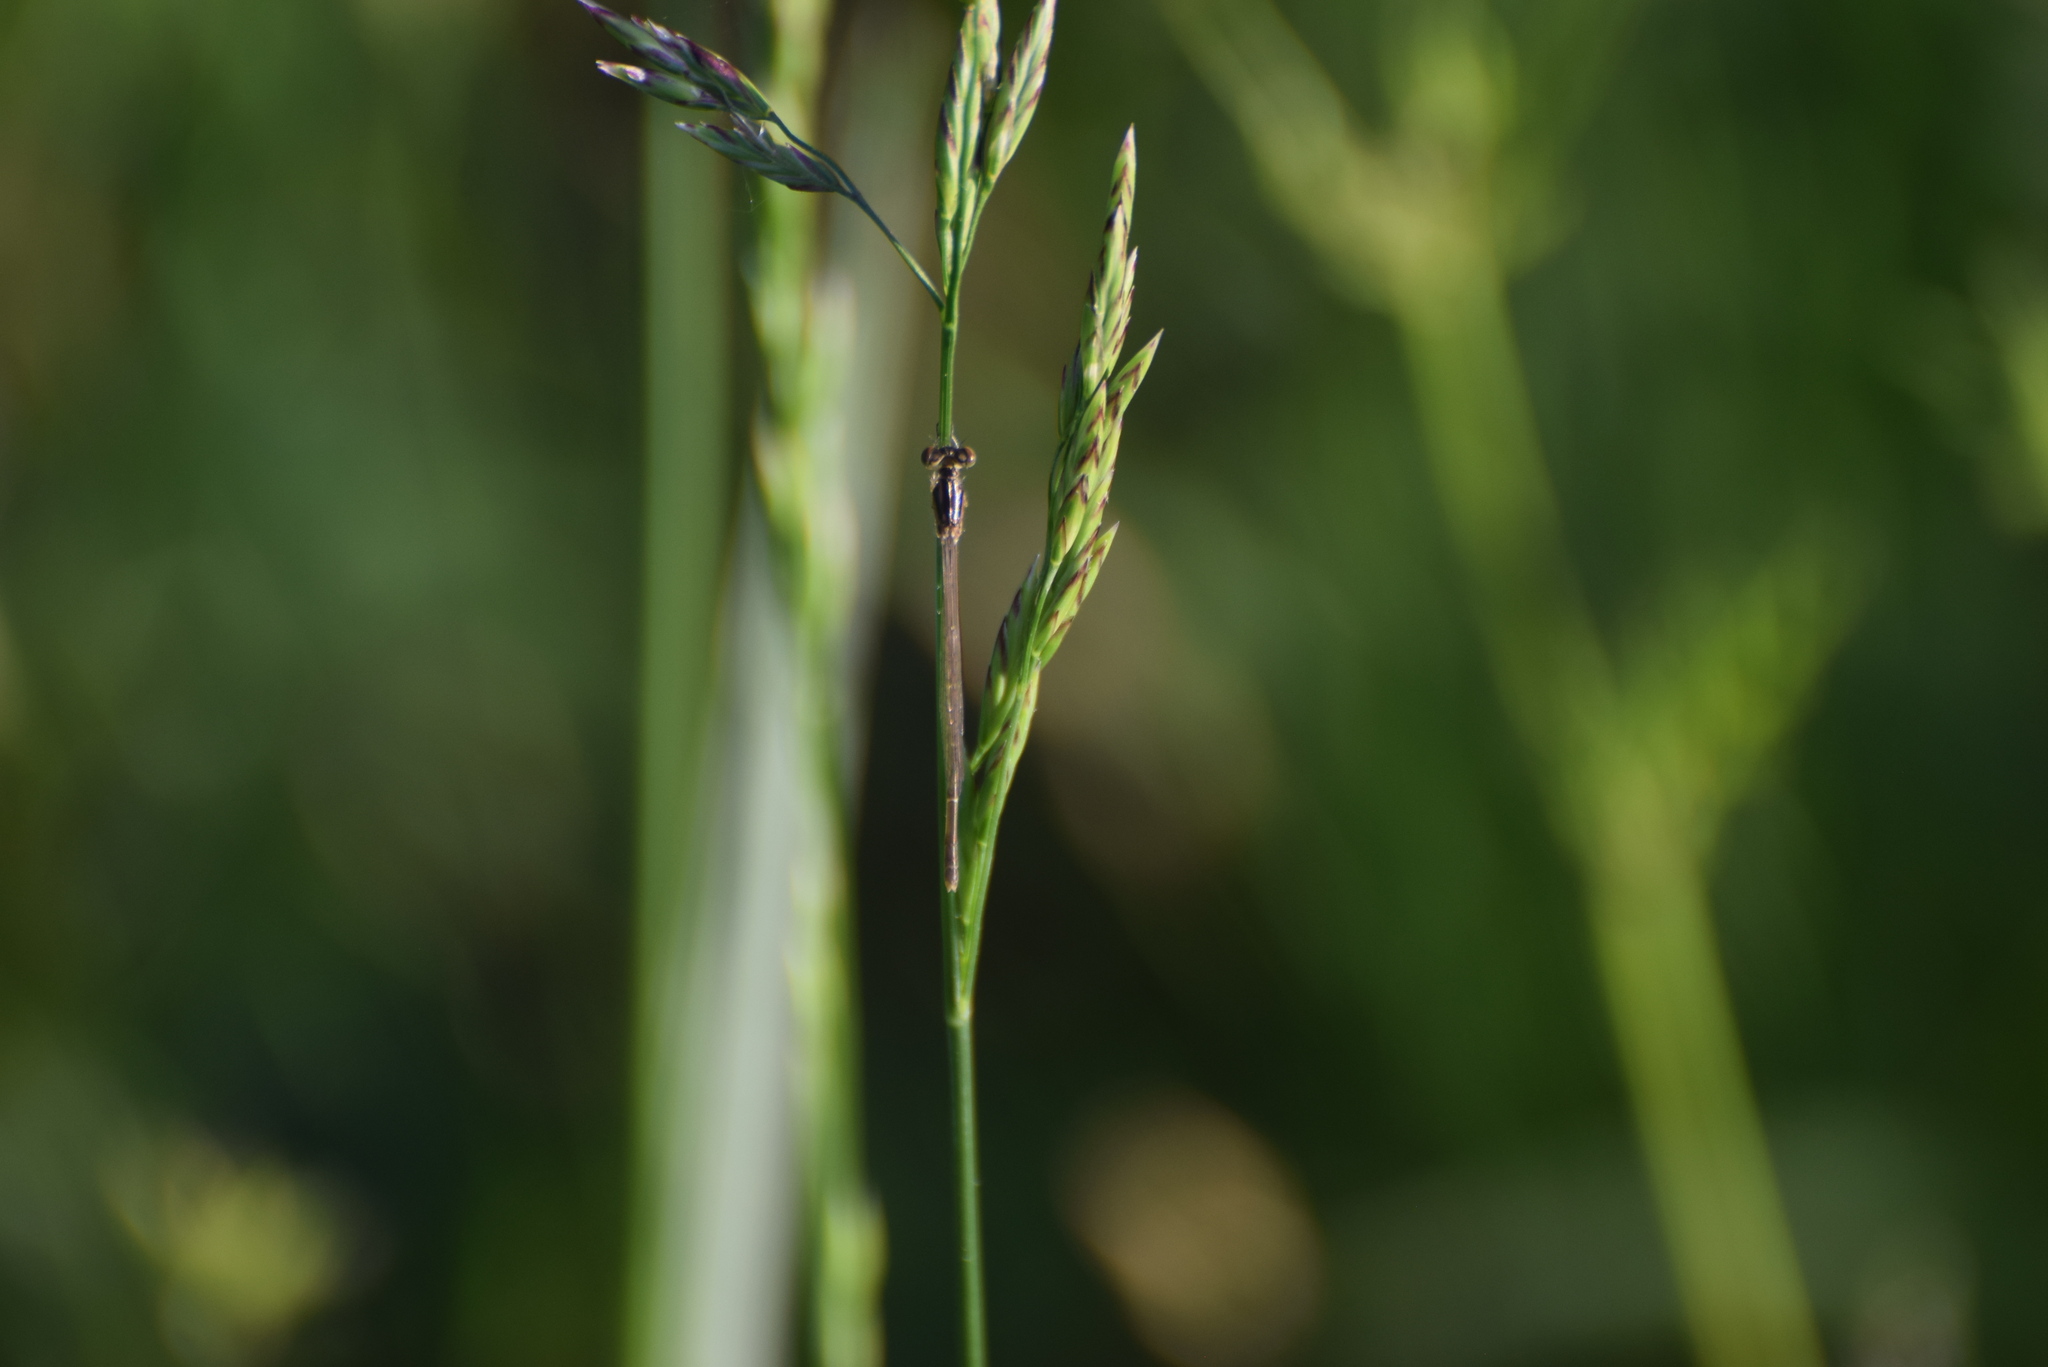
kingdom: Animalia
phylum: Arthropoda
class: Insecta
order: Odonata
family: Coenagrionidae
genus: Ischnura
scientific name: Ischnura posita
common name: Fragile forktail
